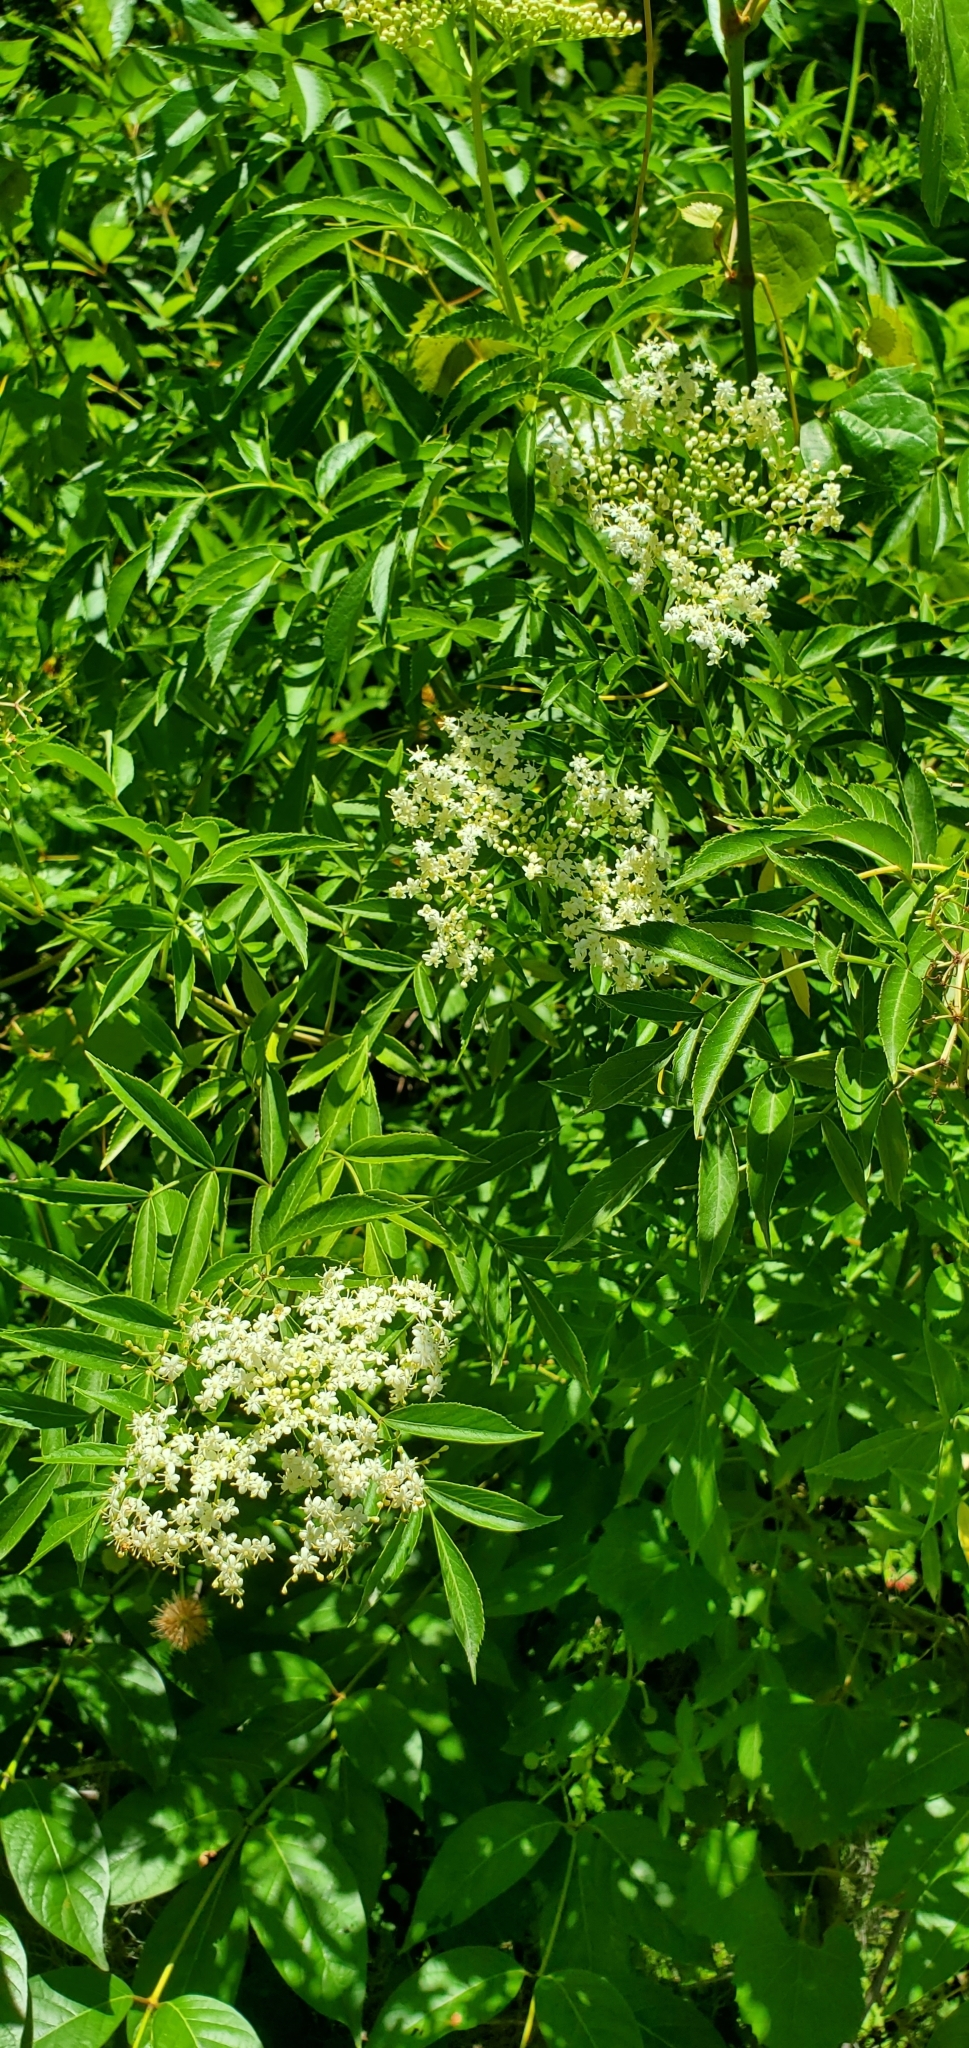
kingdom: Plantae
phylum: Tracheophyta
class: Magnoliopsida
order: Dipsacales
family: Viburnaceae
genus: Sambucus
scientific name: Sambucus canadensis
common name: American elder
